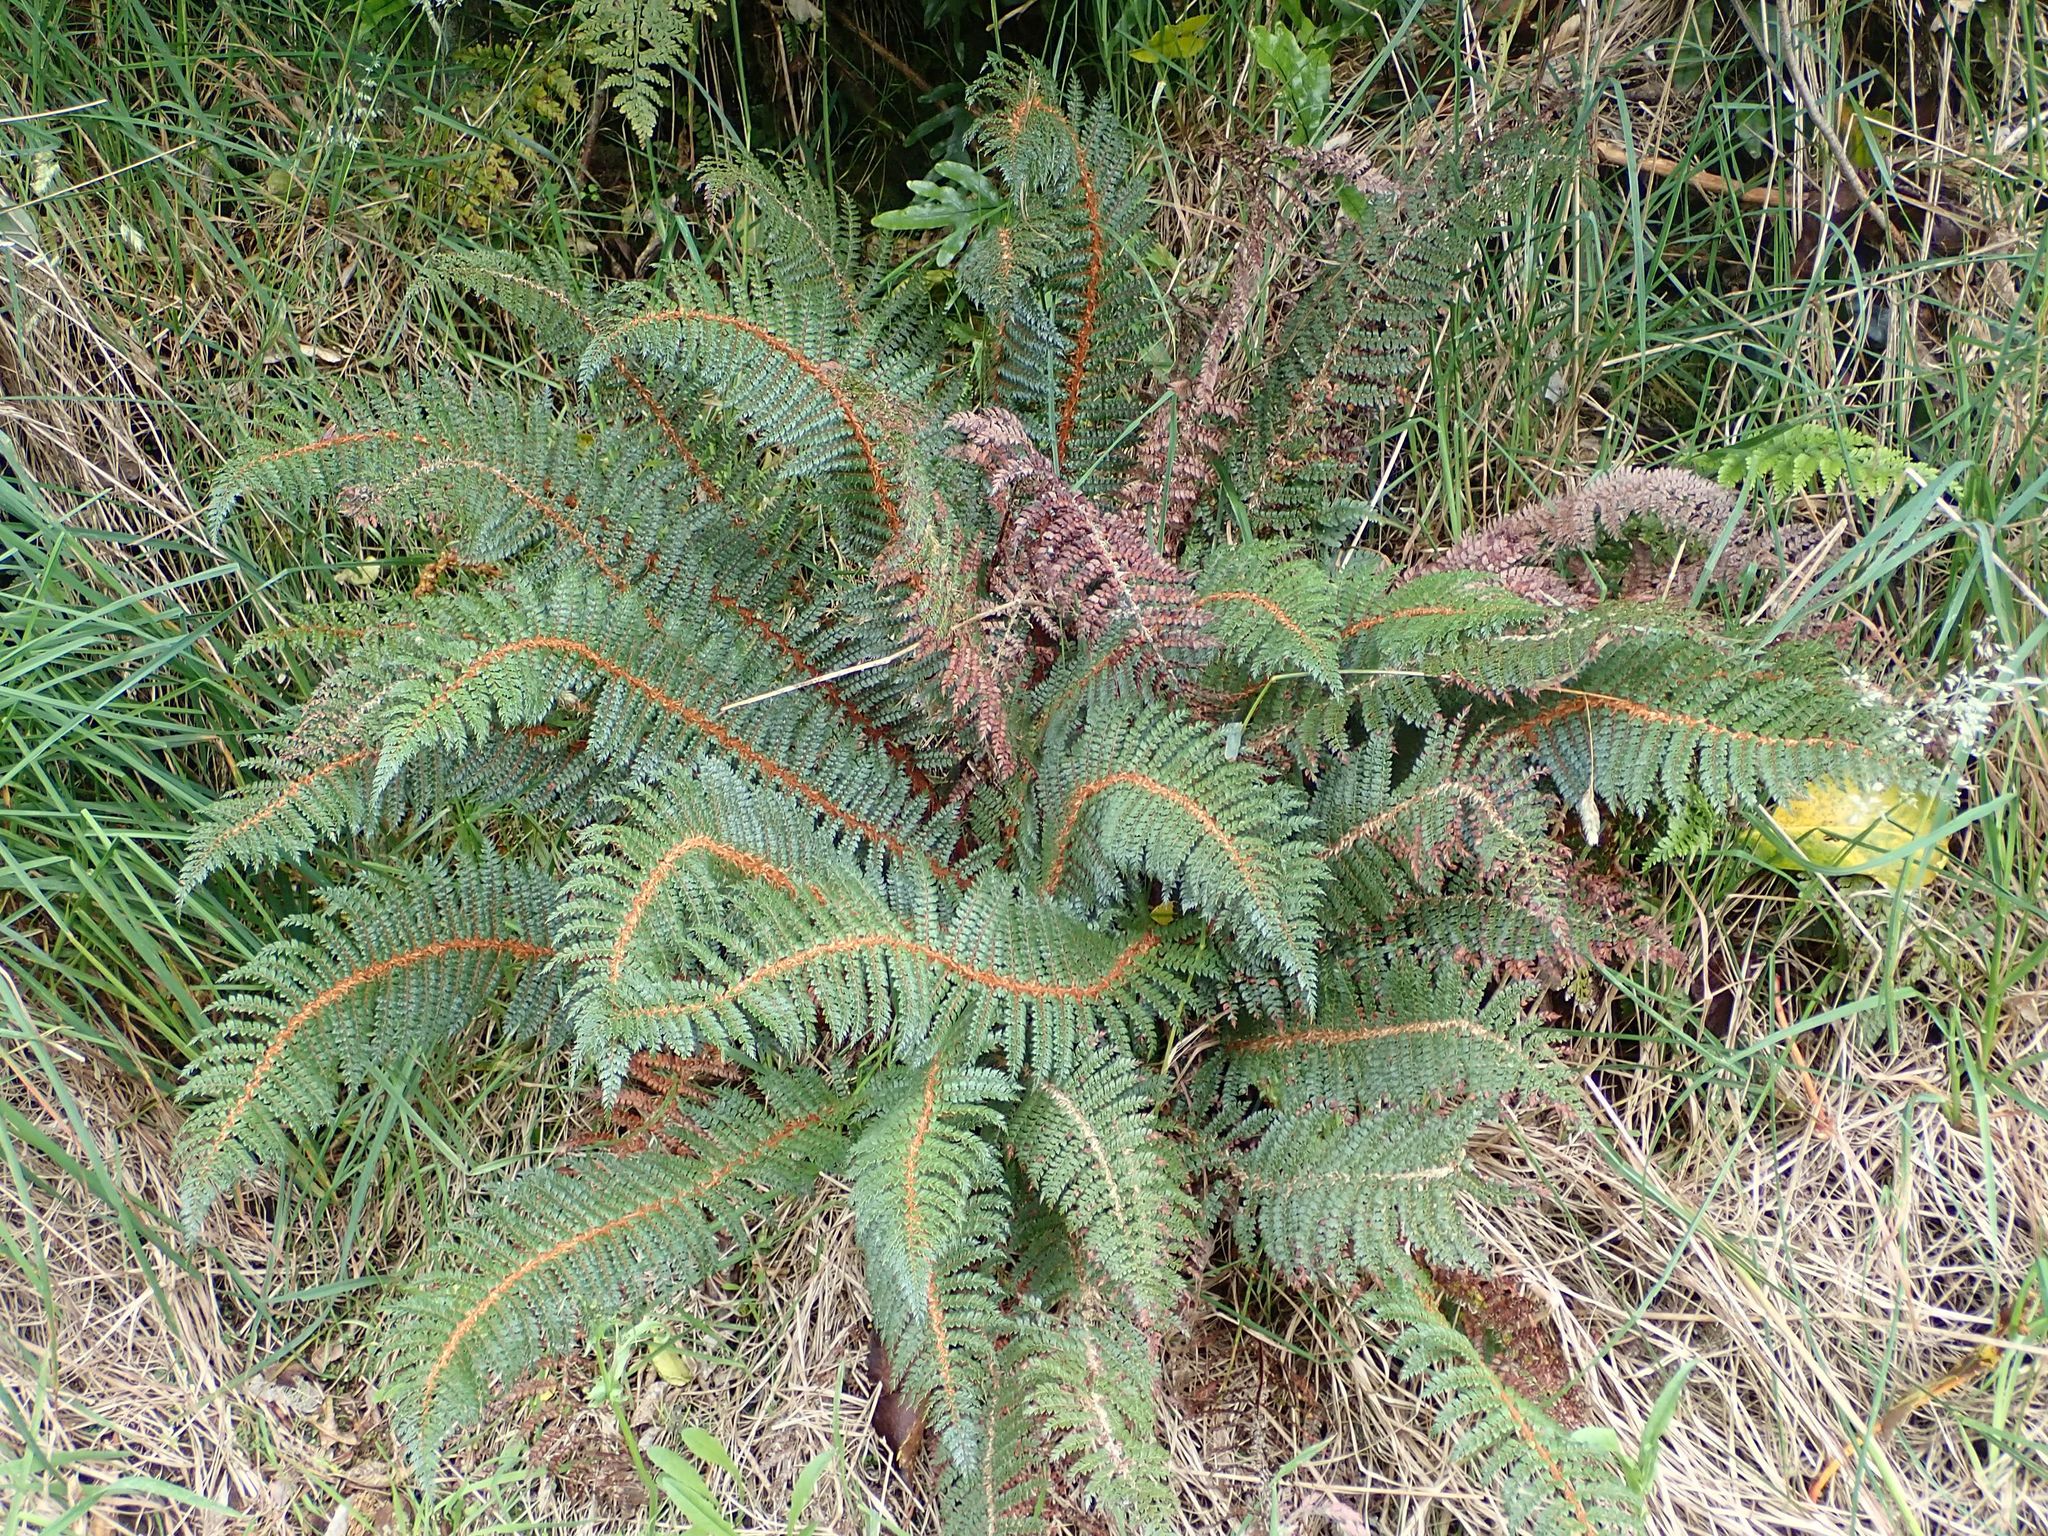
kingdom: Plantae
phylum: Tracheophyta
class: Polypodiopsida
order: Polypodiales
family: Dryopteridaceae
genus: Polystichum
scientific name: Polystichum vestitum
